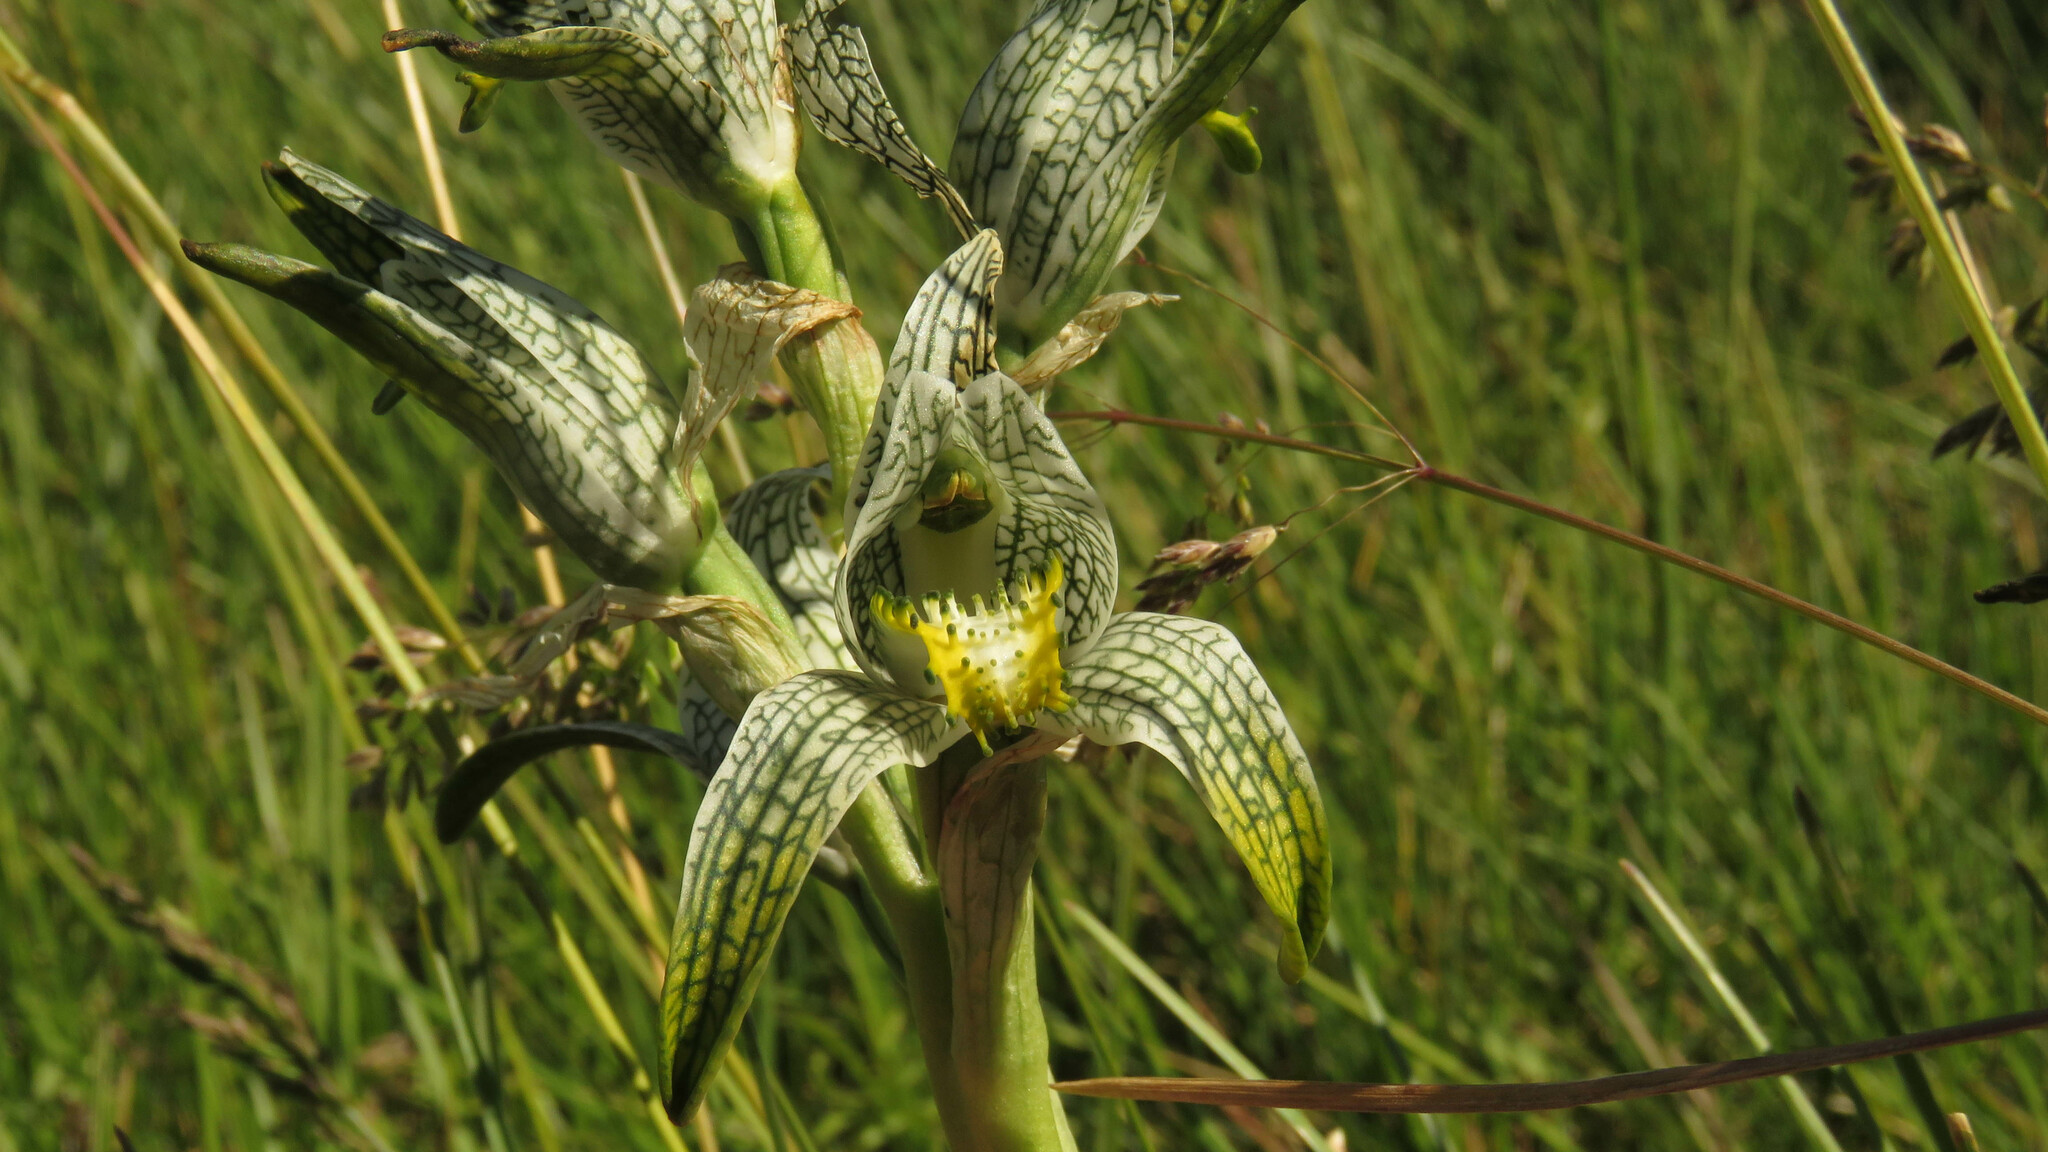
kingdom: Plantae
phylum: Tracheophyta
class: Liliopsida
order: Asparagales
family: Orchidaceae
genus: Chloraea
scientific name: Chloraea magellanica
